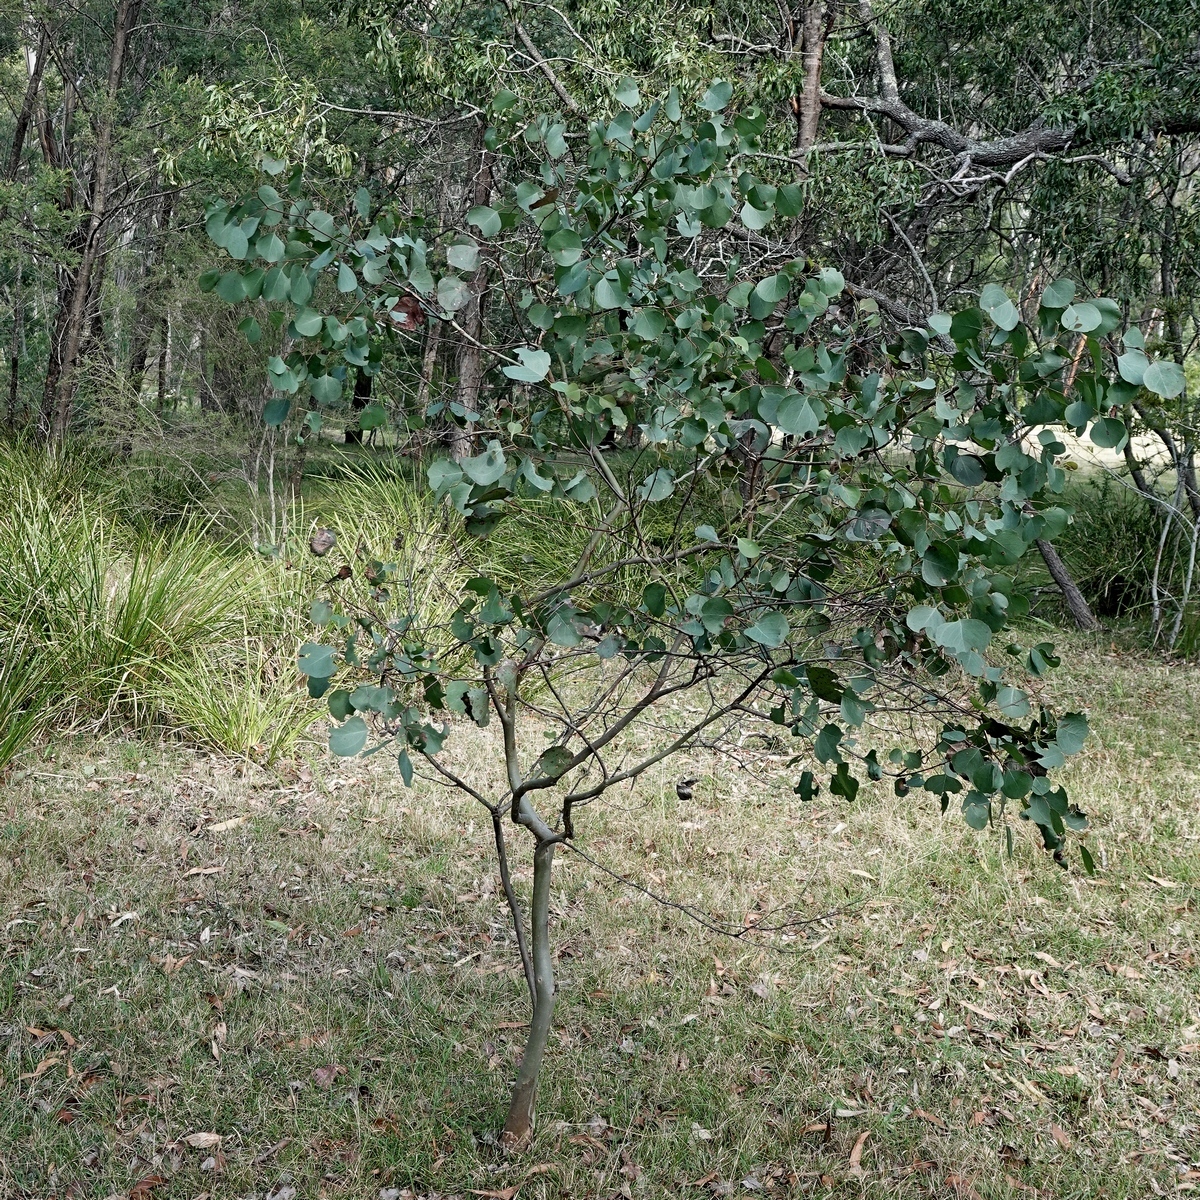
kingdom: Plantae
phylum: Tracheophyta
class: Magnoliopsida
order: Myrtales
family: Myrtaceae
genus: Eucalyptus
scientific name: Eucalyptus baueriana
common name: Round-leaf-box
